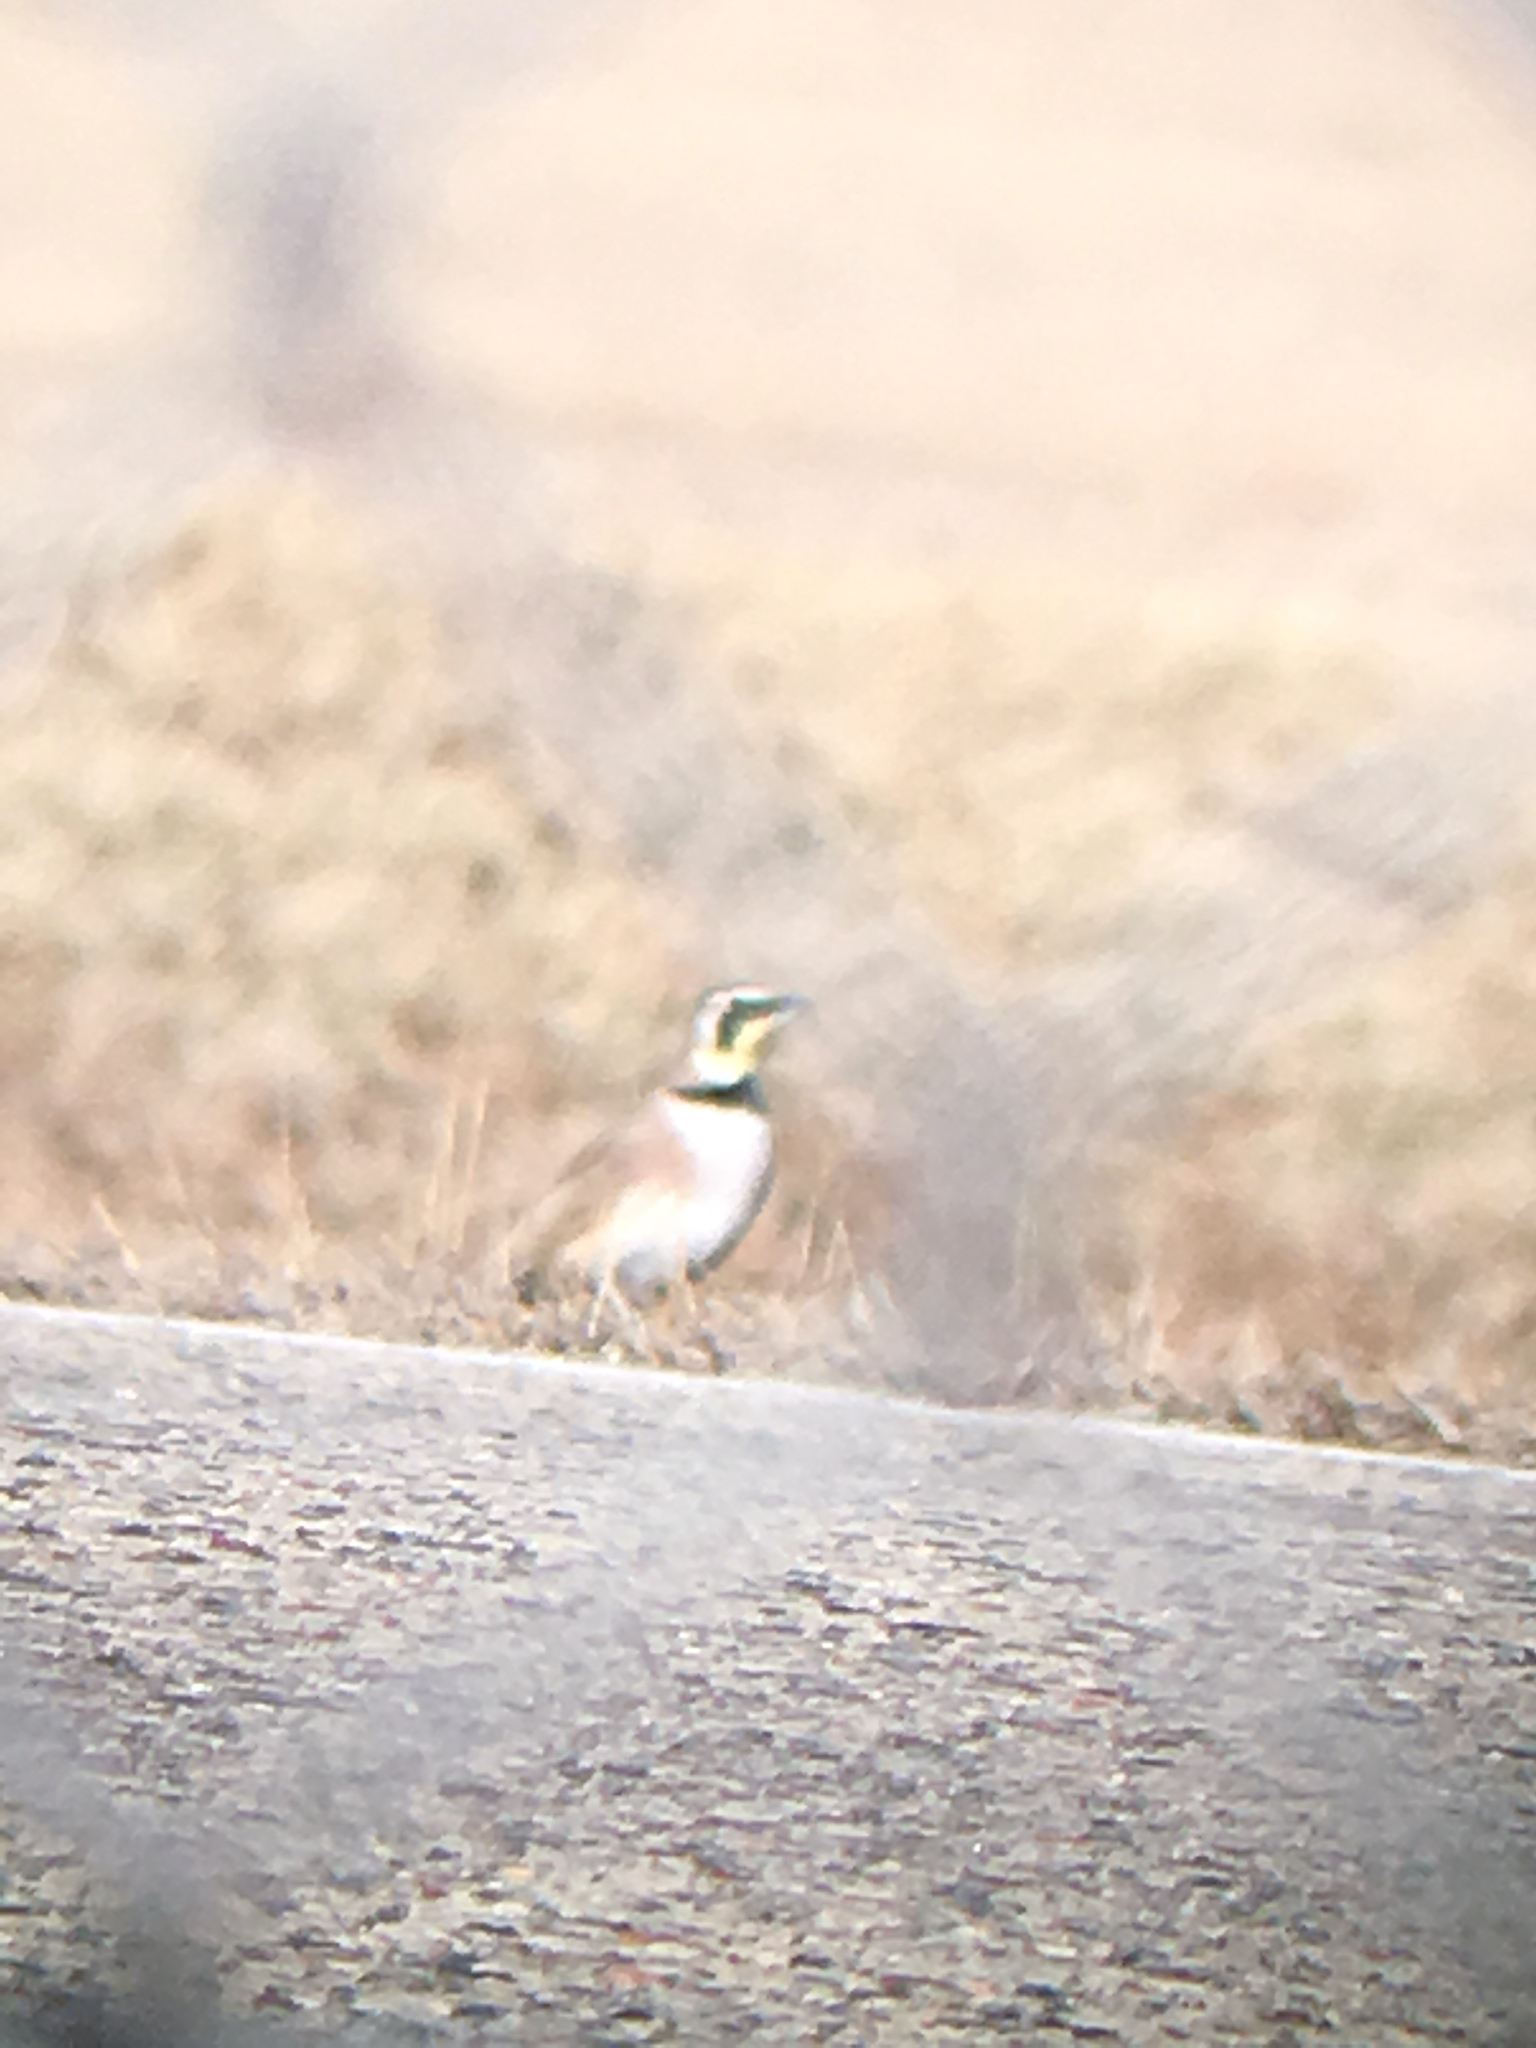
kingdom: Animalia
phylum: Chordata
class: Aves
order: Passeriformes
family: Alaudidae
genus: Eremophila
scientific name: Eremophila alpestris
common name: Horned lark
